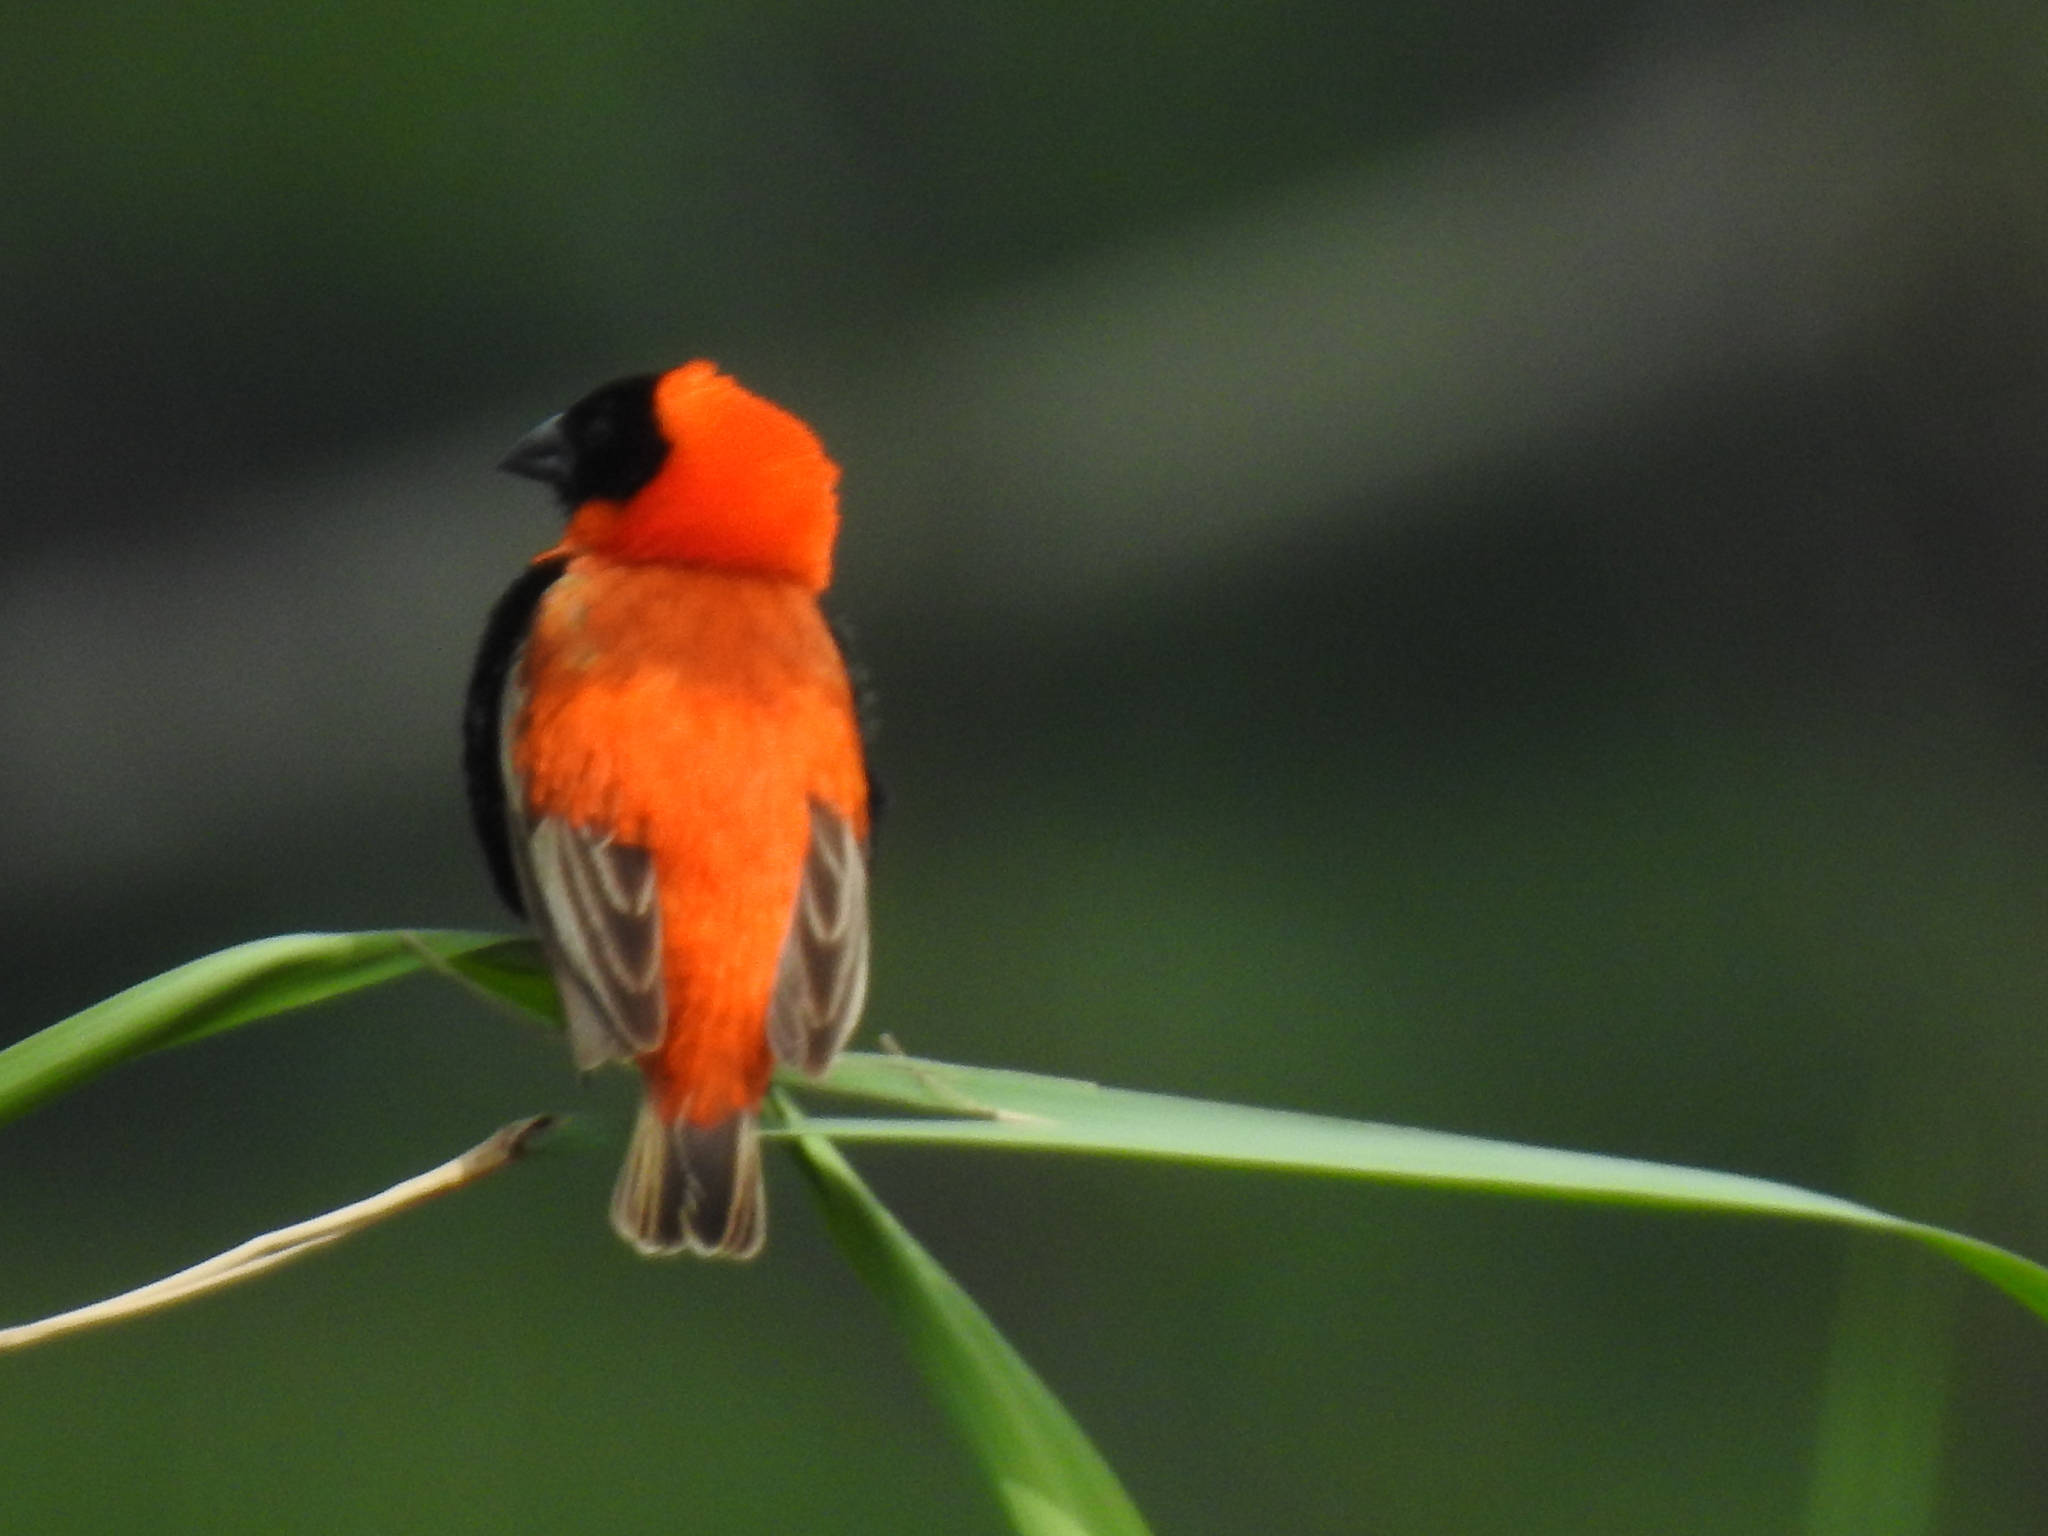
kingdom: Animalia
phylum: Chordata
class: Aves
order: Passeriformes
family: Ploceidae
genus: Euplectes
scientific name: Euplectes orix
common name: Southern red bishop
